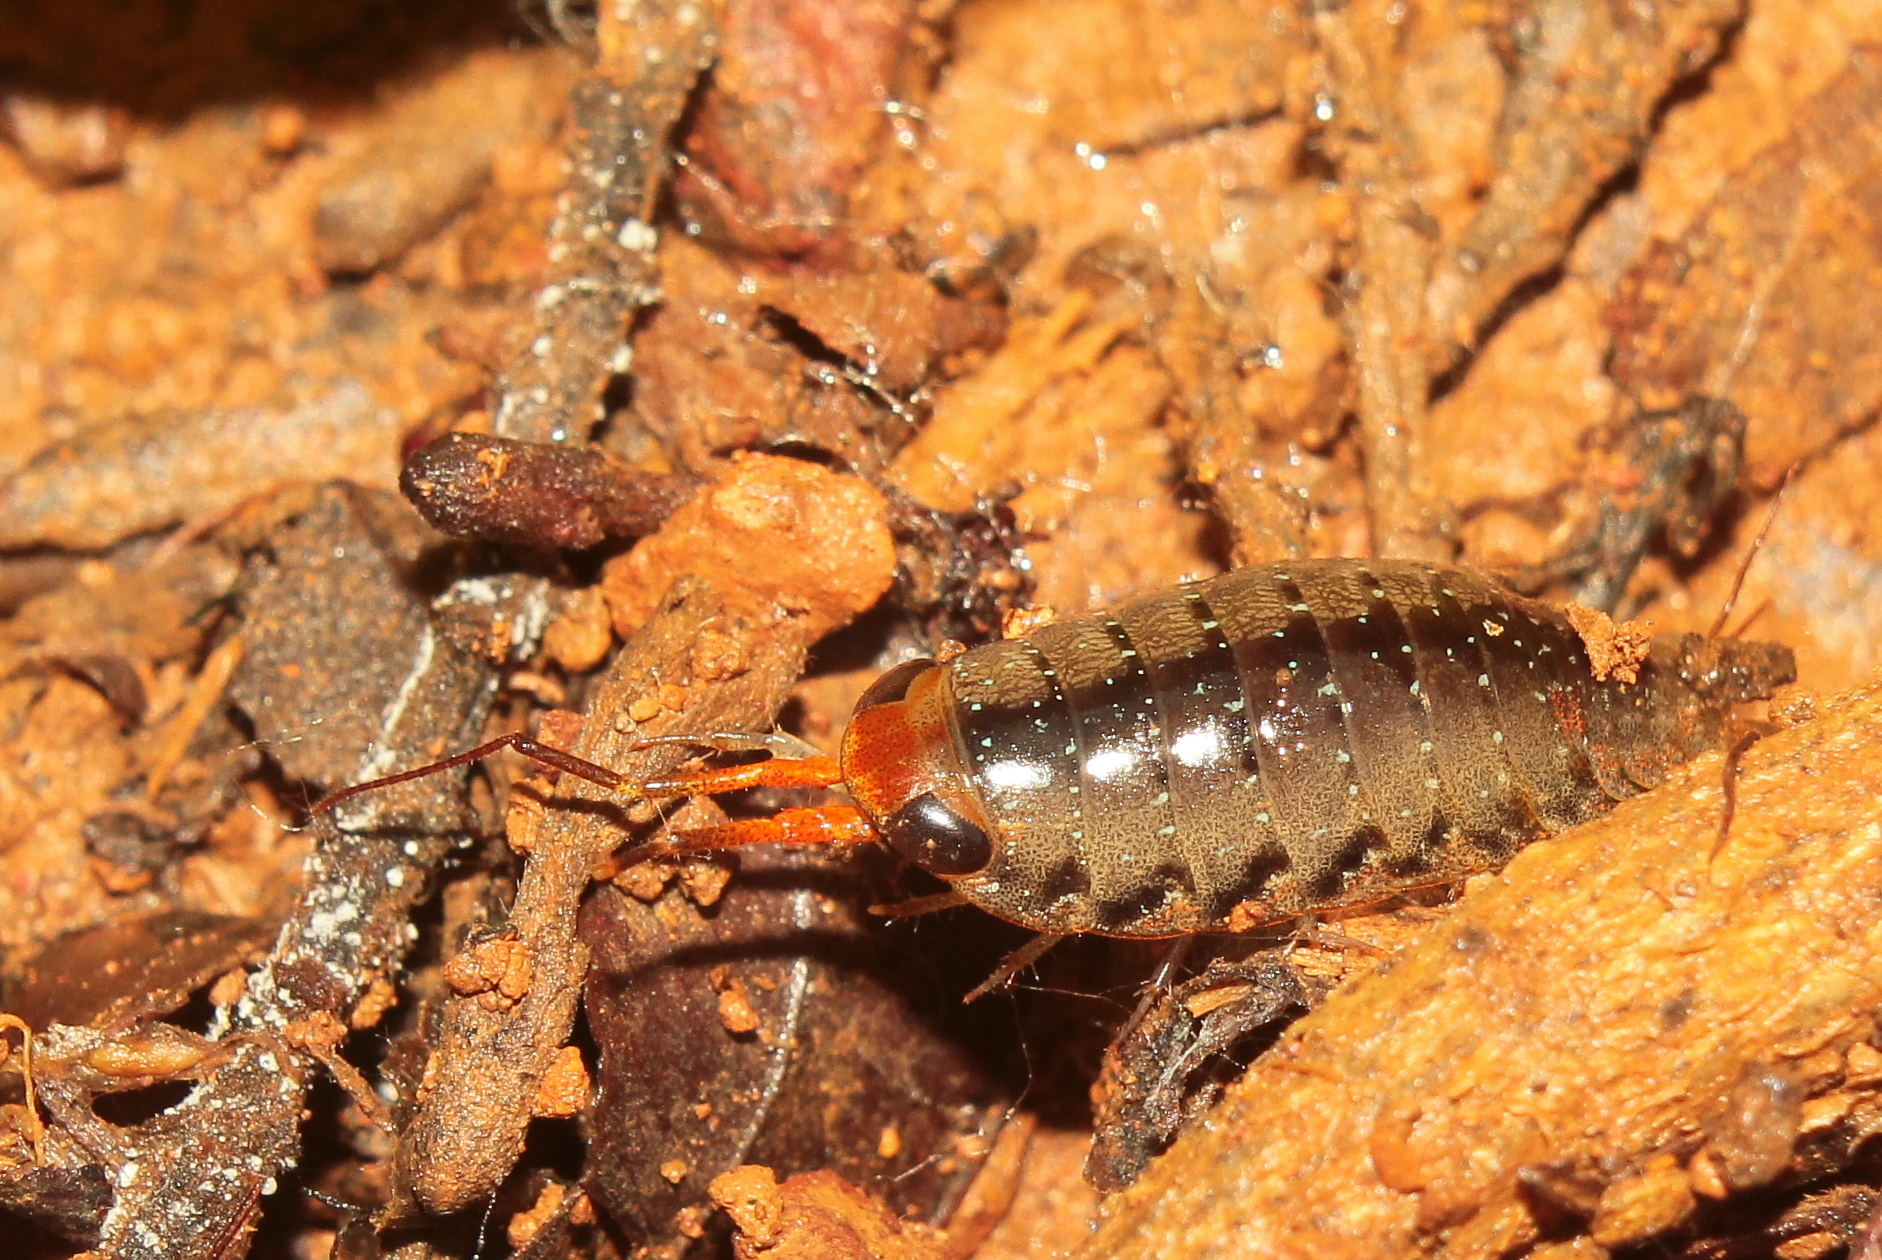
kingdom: Animalia
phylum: Arthropoda
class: Malacostraca
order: Isopoda
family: Ligiidae
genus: Ligia
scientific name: Ligia platycephala
